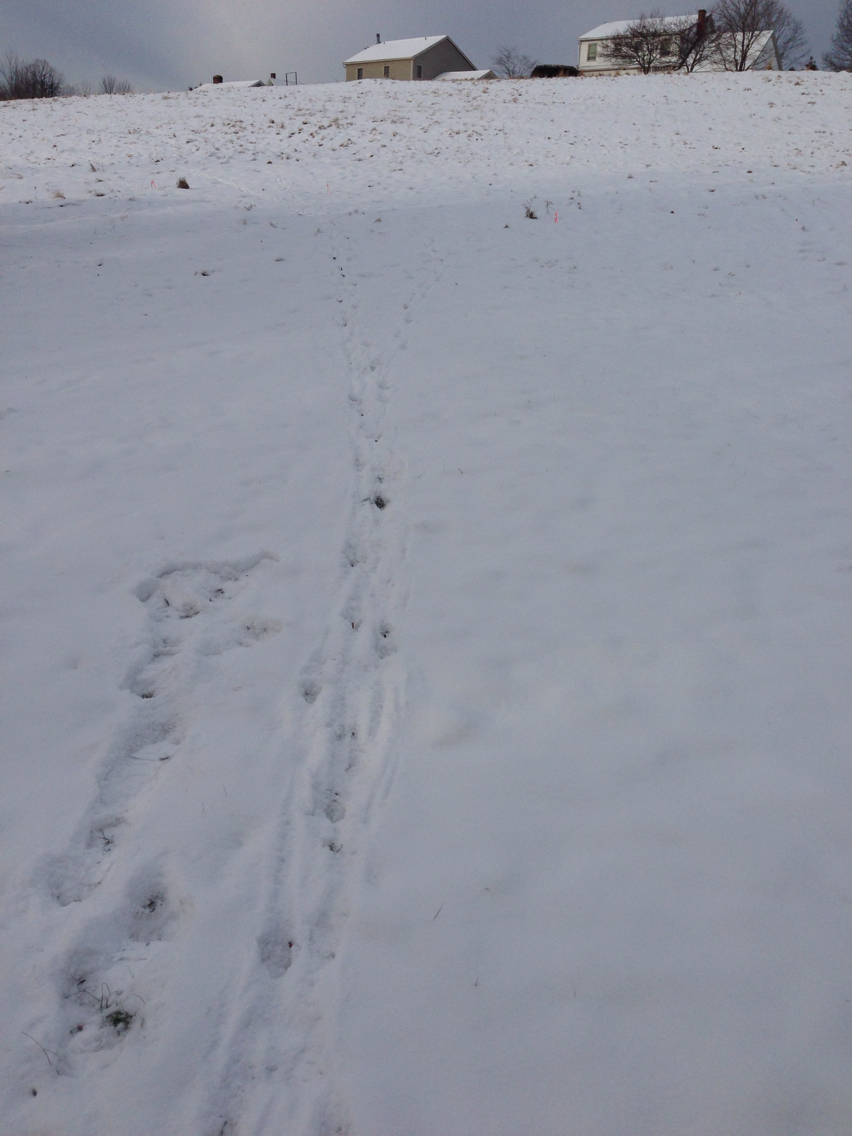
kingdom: Animalia
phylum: Chordata
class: Mammalia
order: Artiodactyla
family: Cervidae
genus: Odocoileus
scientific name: Odocoileus virginianus
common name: White-tailed deer
